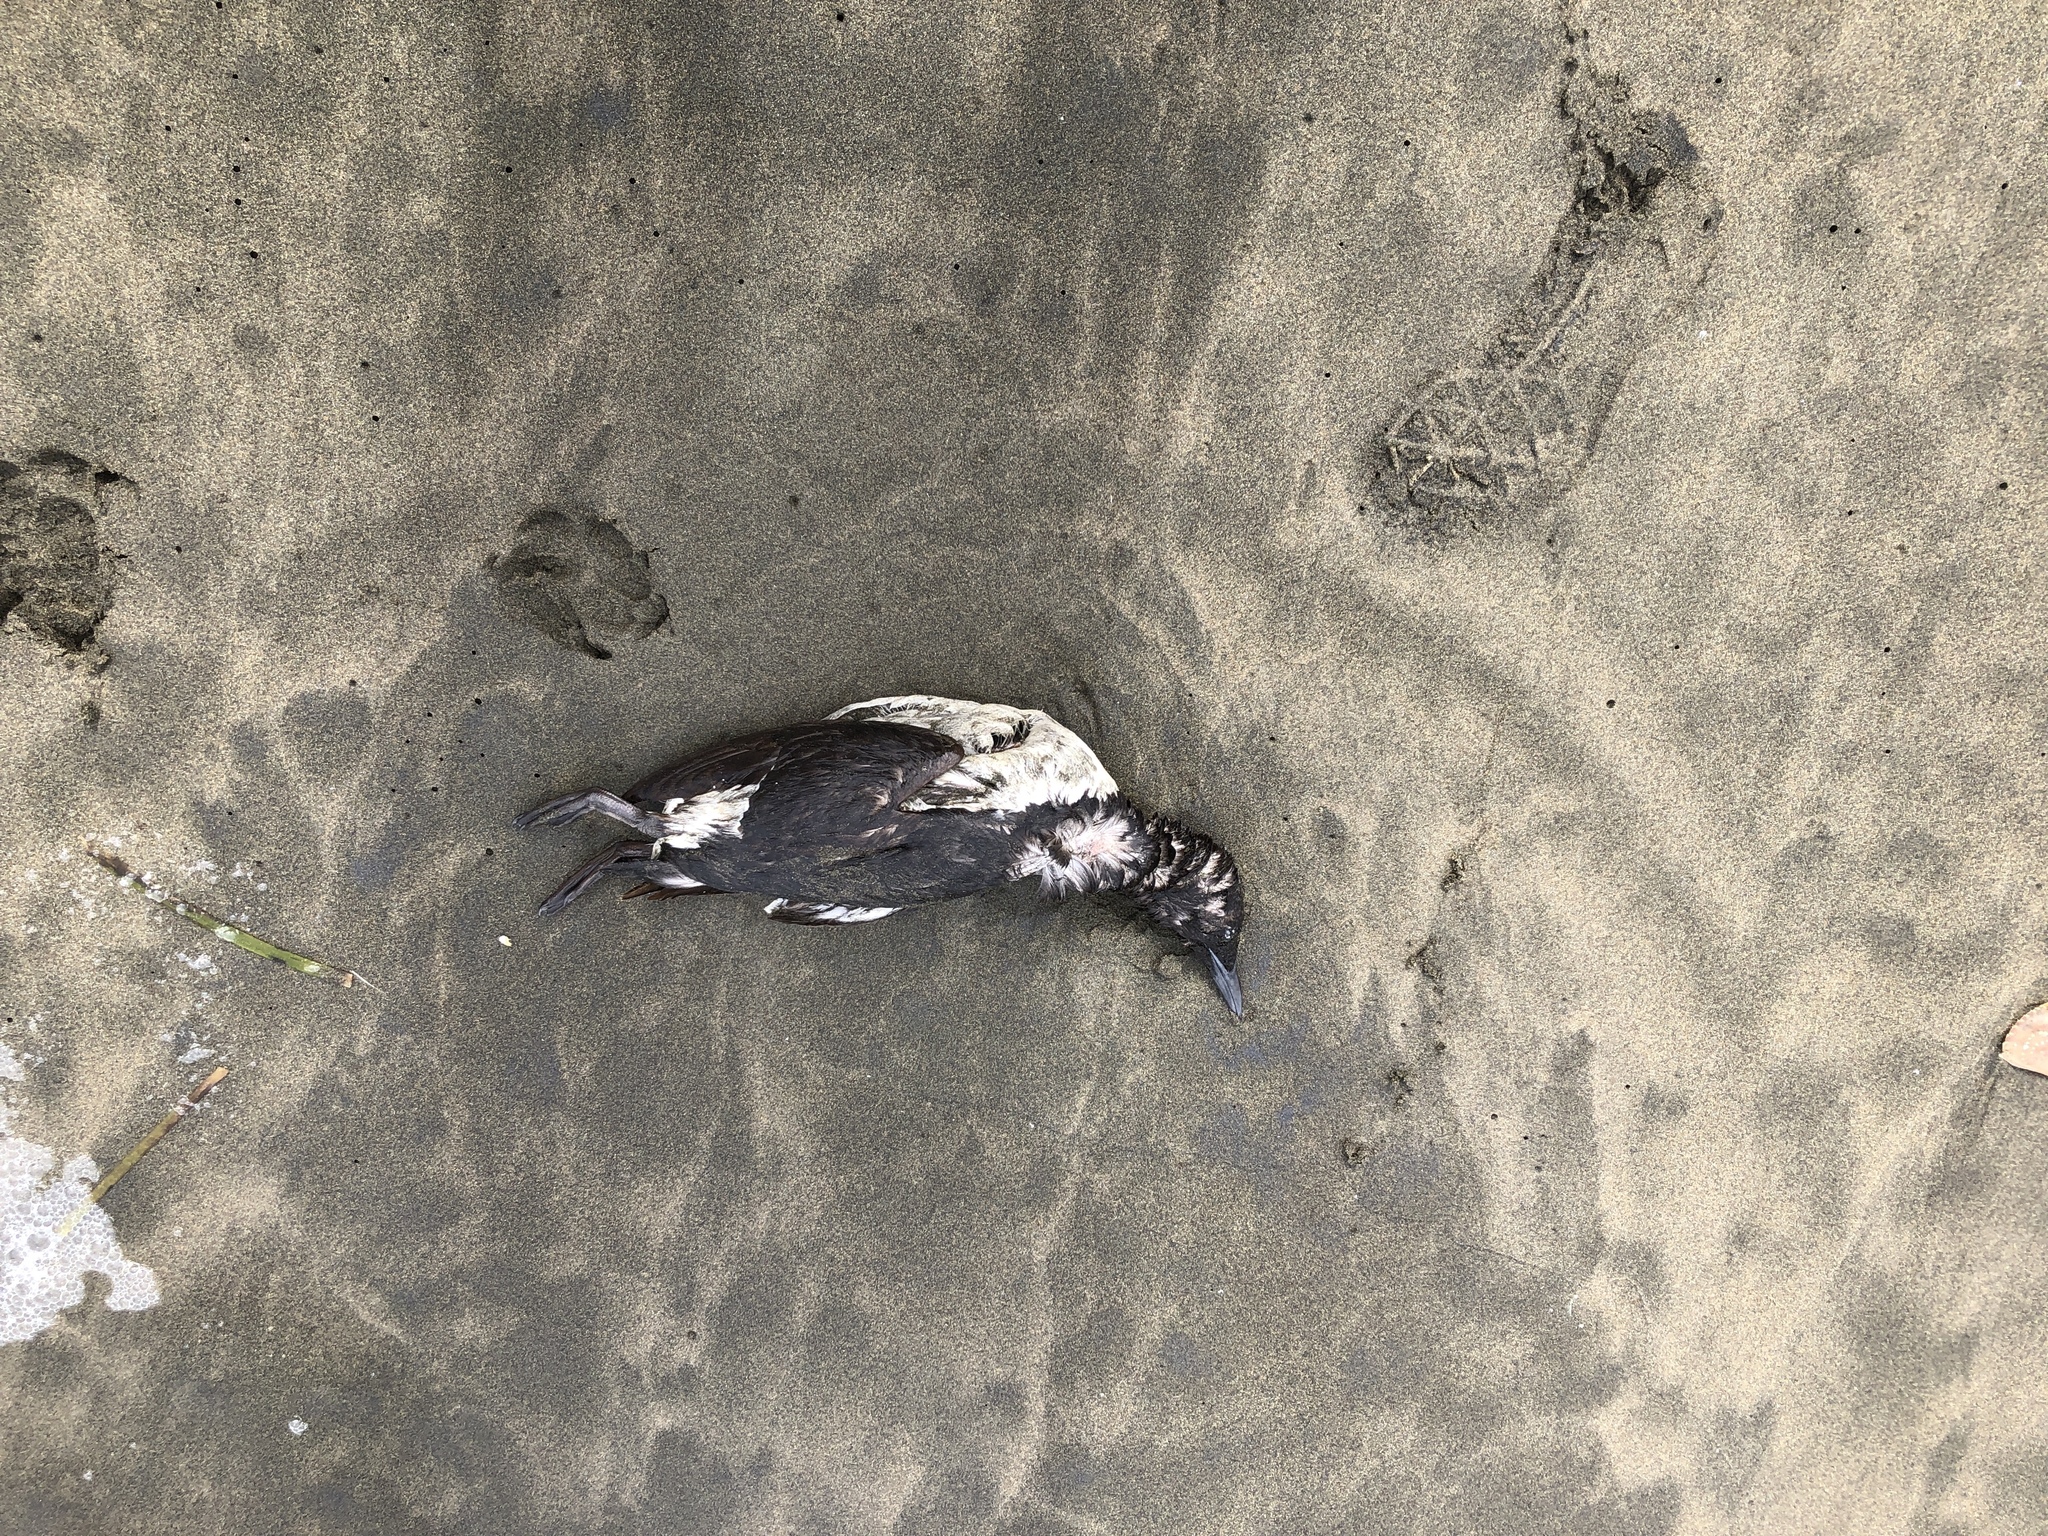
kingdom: Animalia
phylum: Chordata
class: Aves
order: Charadriiformes
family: Alcidae
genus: Uria
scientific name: Uria aalge
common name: Common murre
